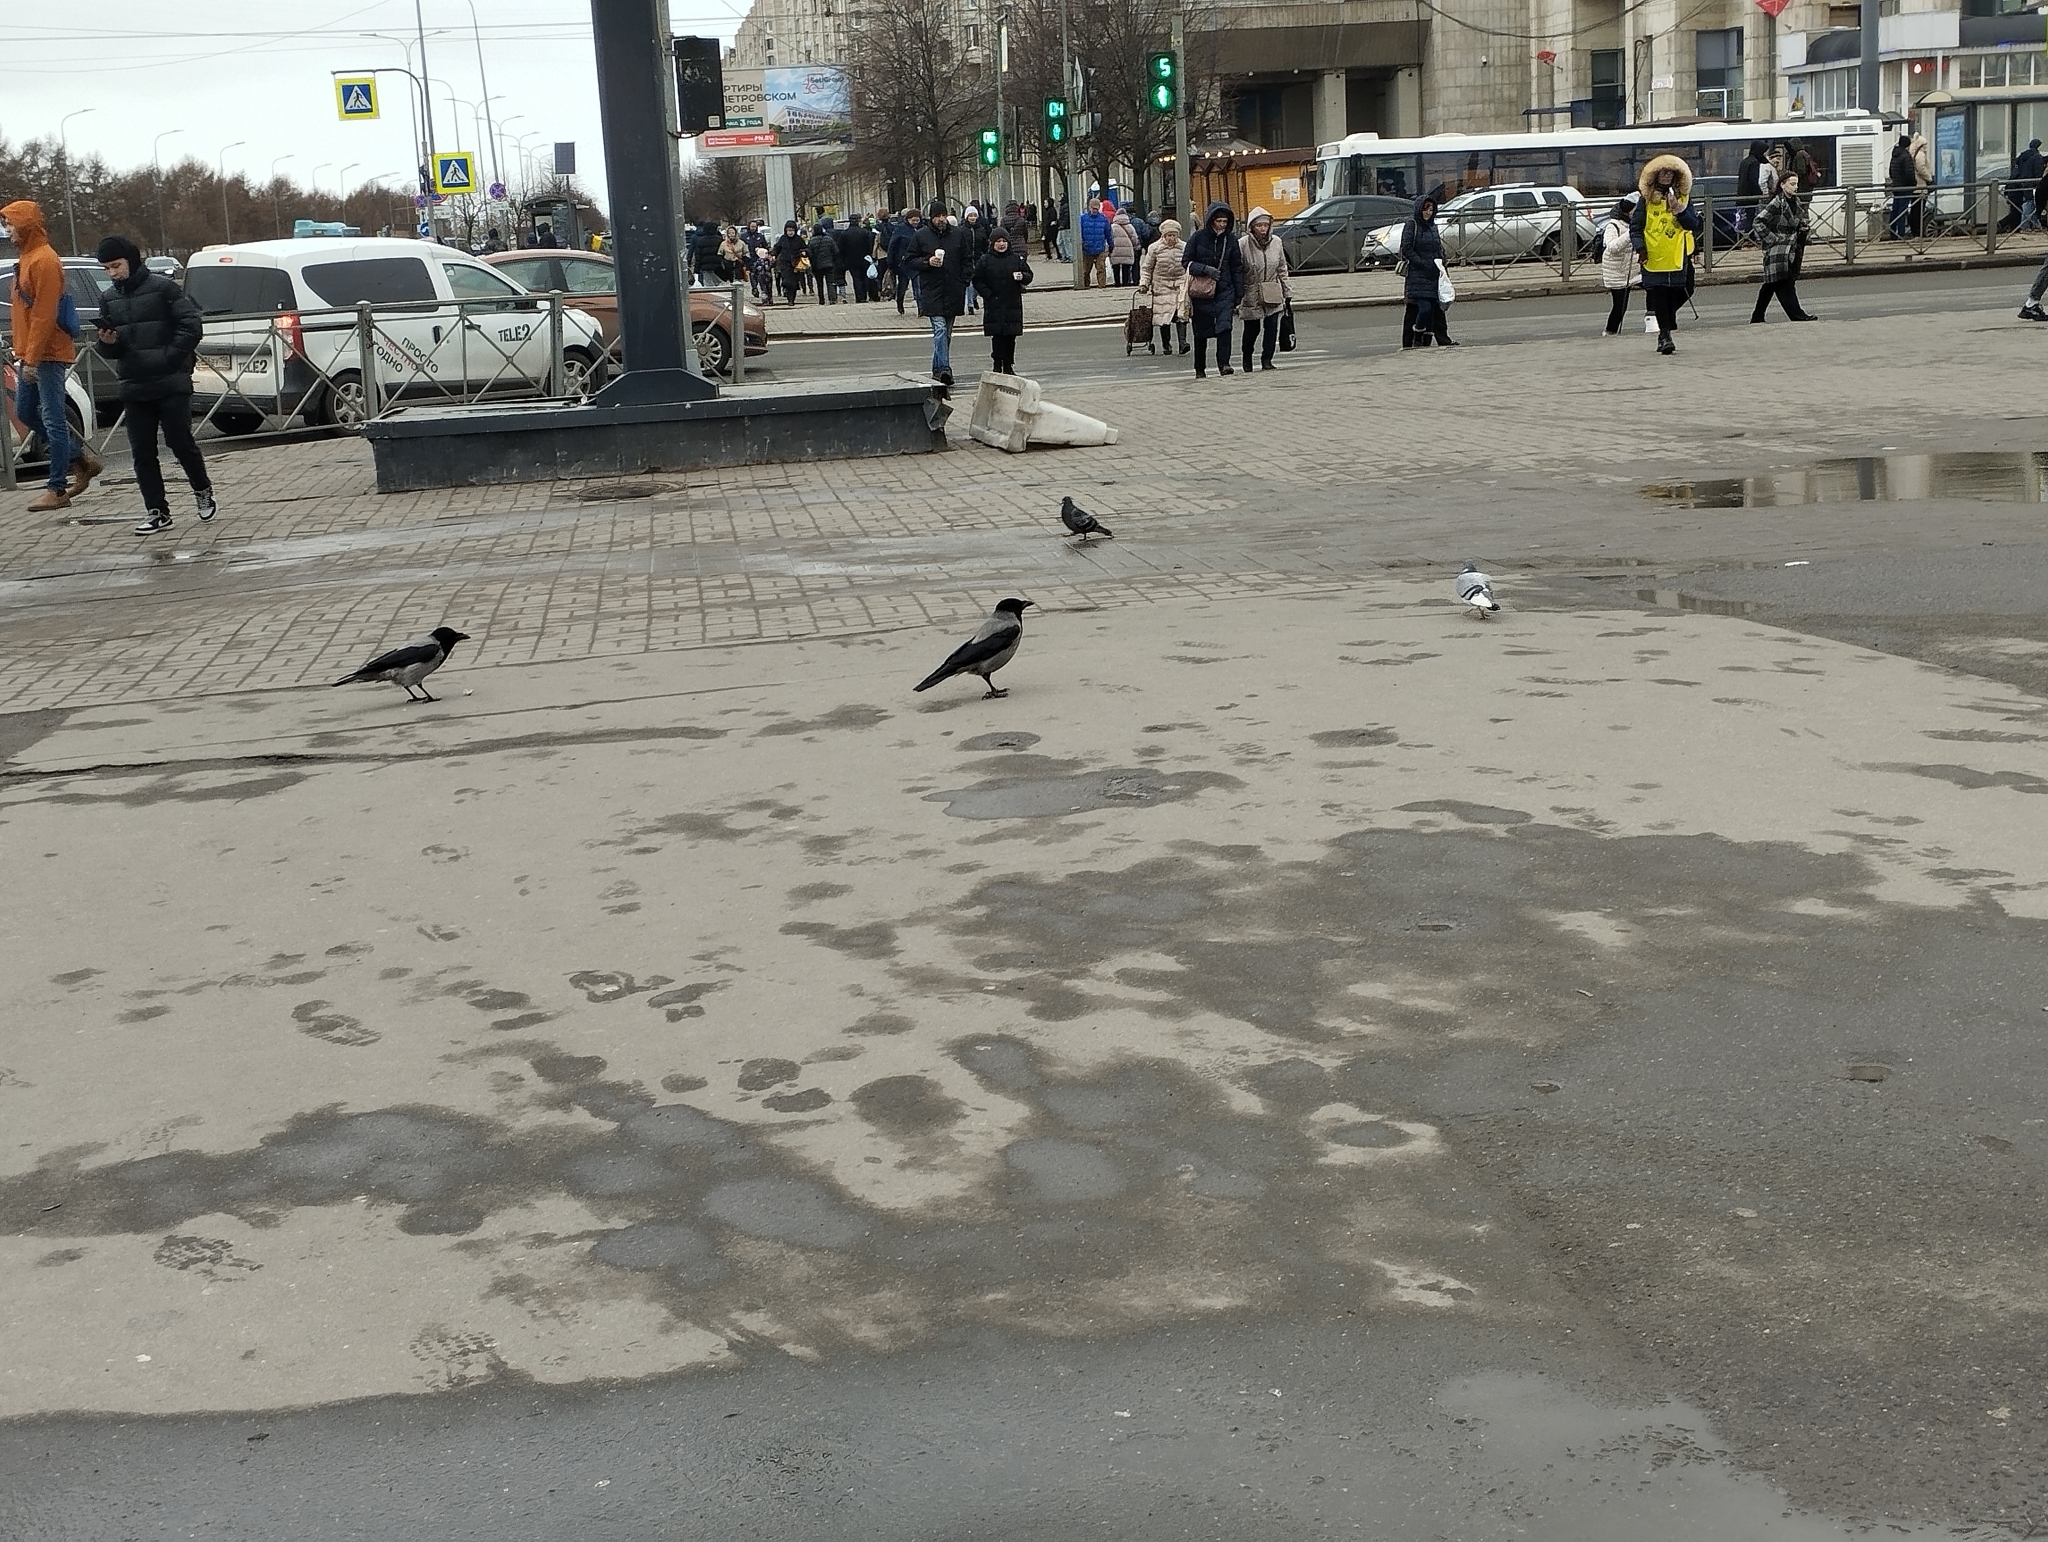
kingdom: Animalia
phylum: Chordata
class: Aves
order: Passeriformes
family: Corvidae
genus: Corvus
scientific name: Corvus cornix
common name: Hooded crow
